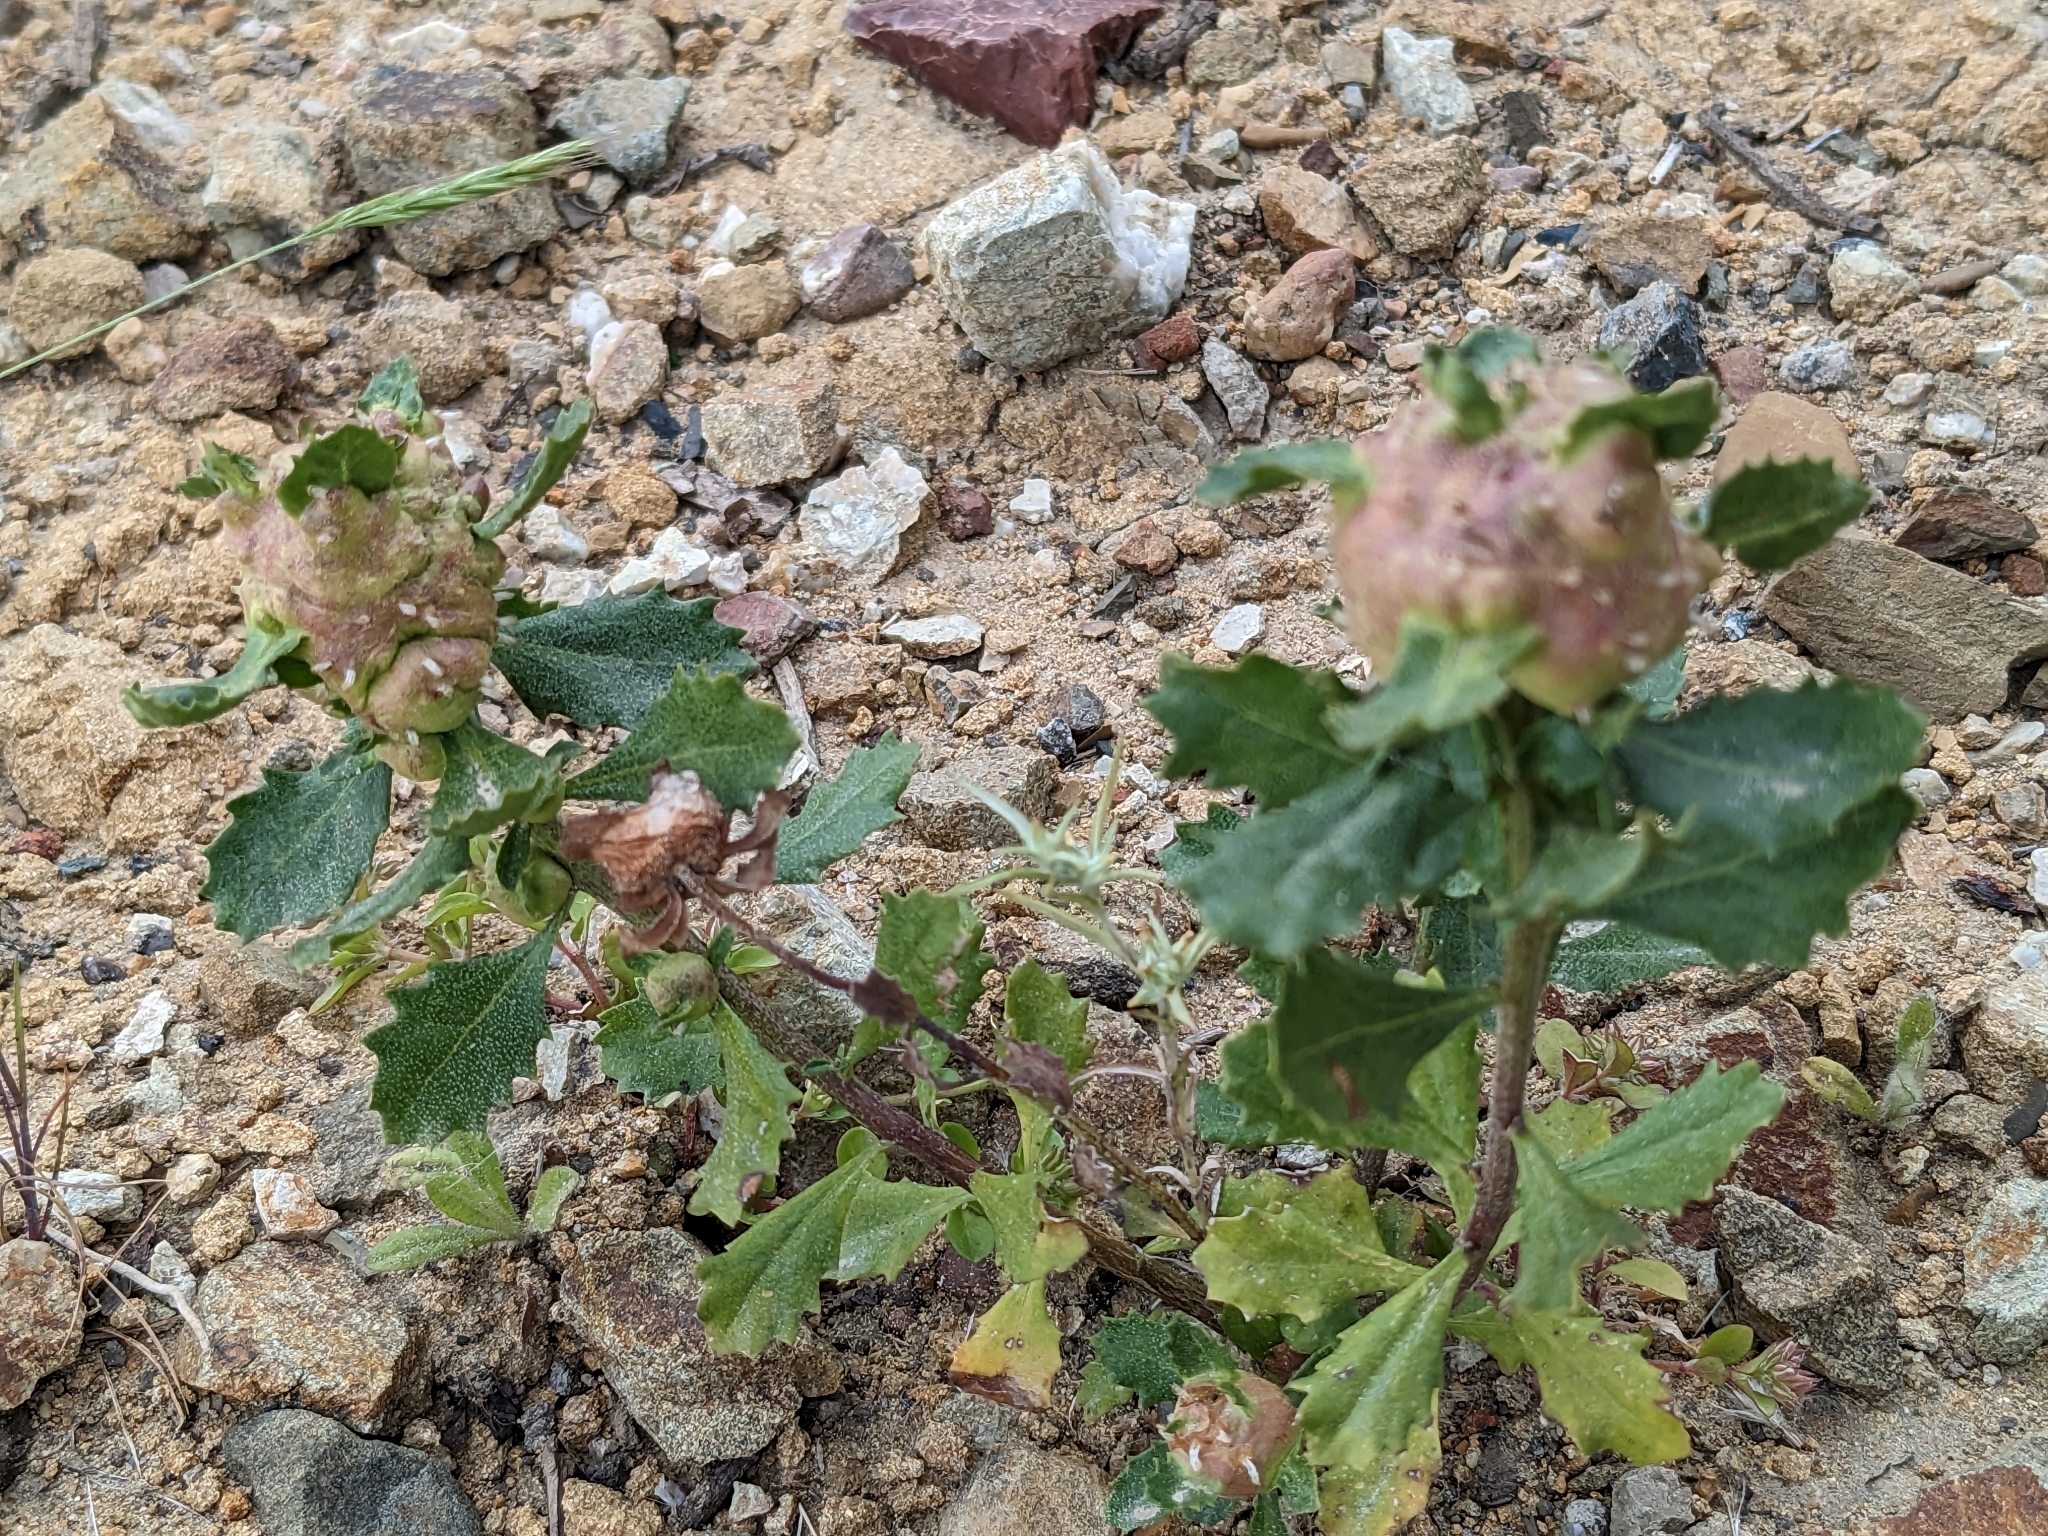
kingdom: Animalia
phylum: Arthropoda
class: Insecta
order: Diptera
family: Cecidomyiidae
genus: Rhopalomyia
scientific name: Rhopalomyia californica
